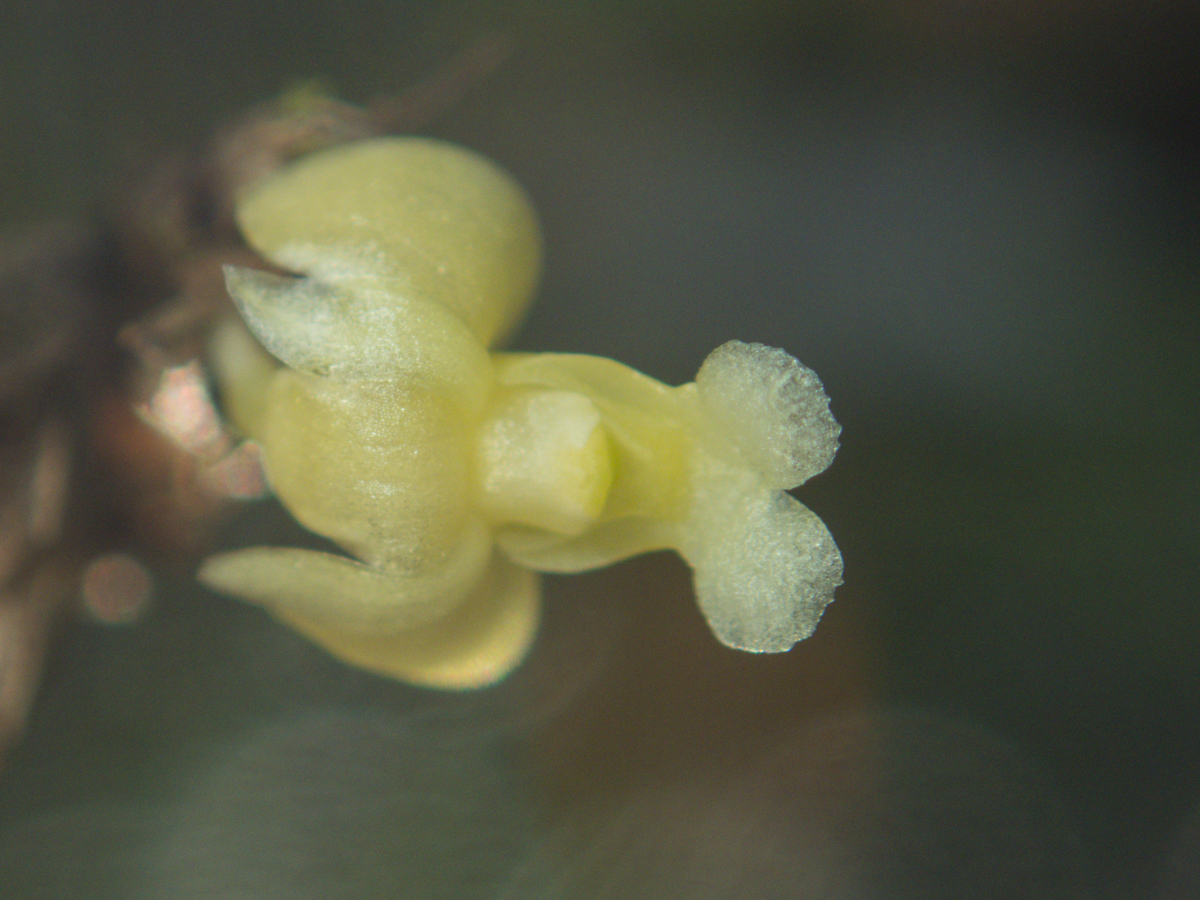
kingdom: Plantae
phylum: Tracheophyta
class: Liliopsida
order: Asparagales
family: Orchidaceae
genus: Dendrobium
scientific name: Dendrobium aloifolium
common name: Aloe-like dendrobium
